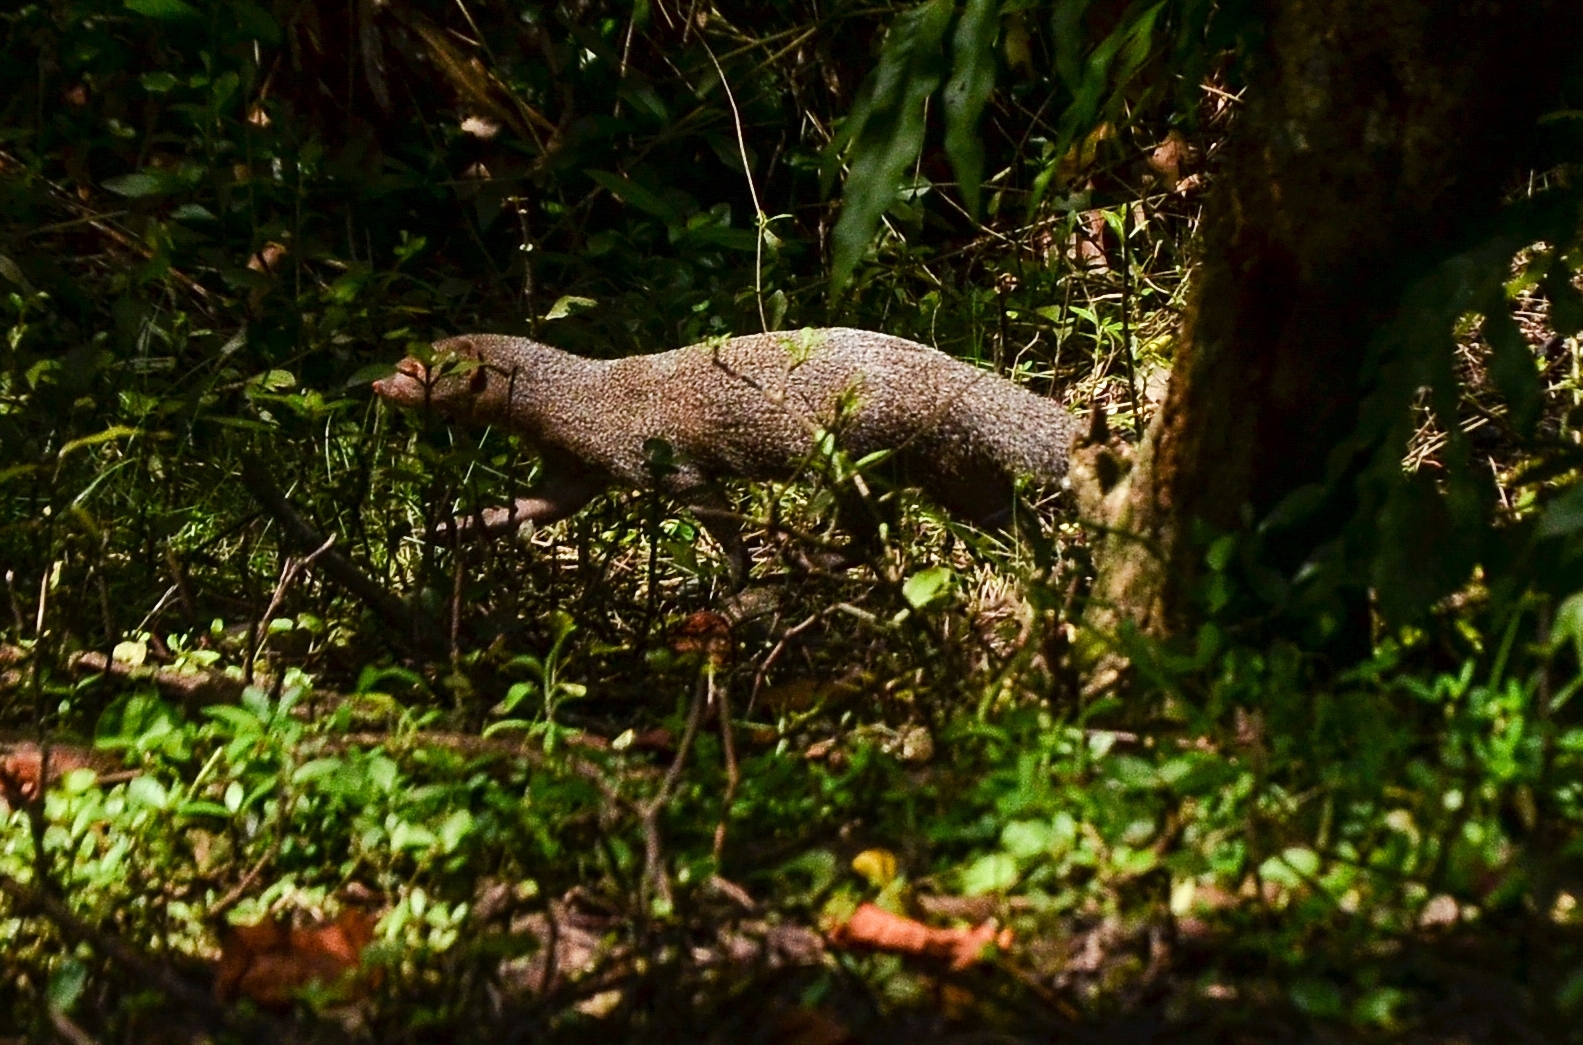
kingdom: Animalia
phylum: Chordata
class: Mammalia
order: Carnivora
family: Herpestidae
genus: Herpestes
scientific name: Herpestes edwardsi
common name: Indian gray mongoose
